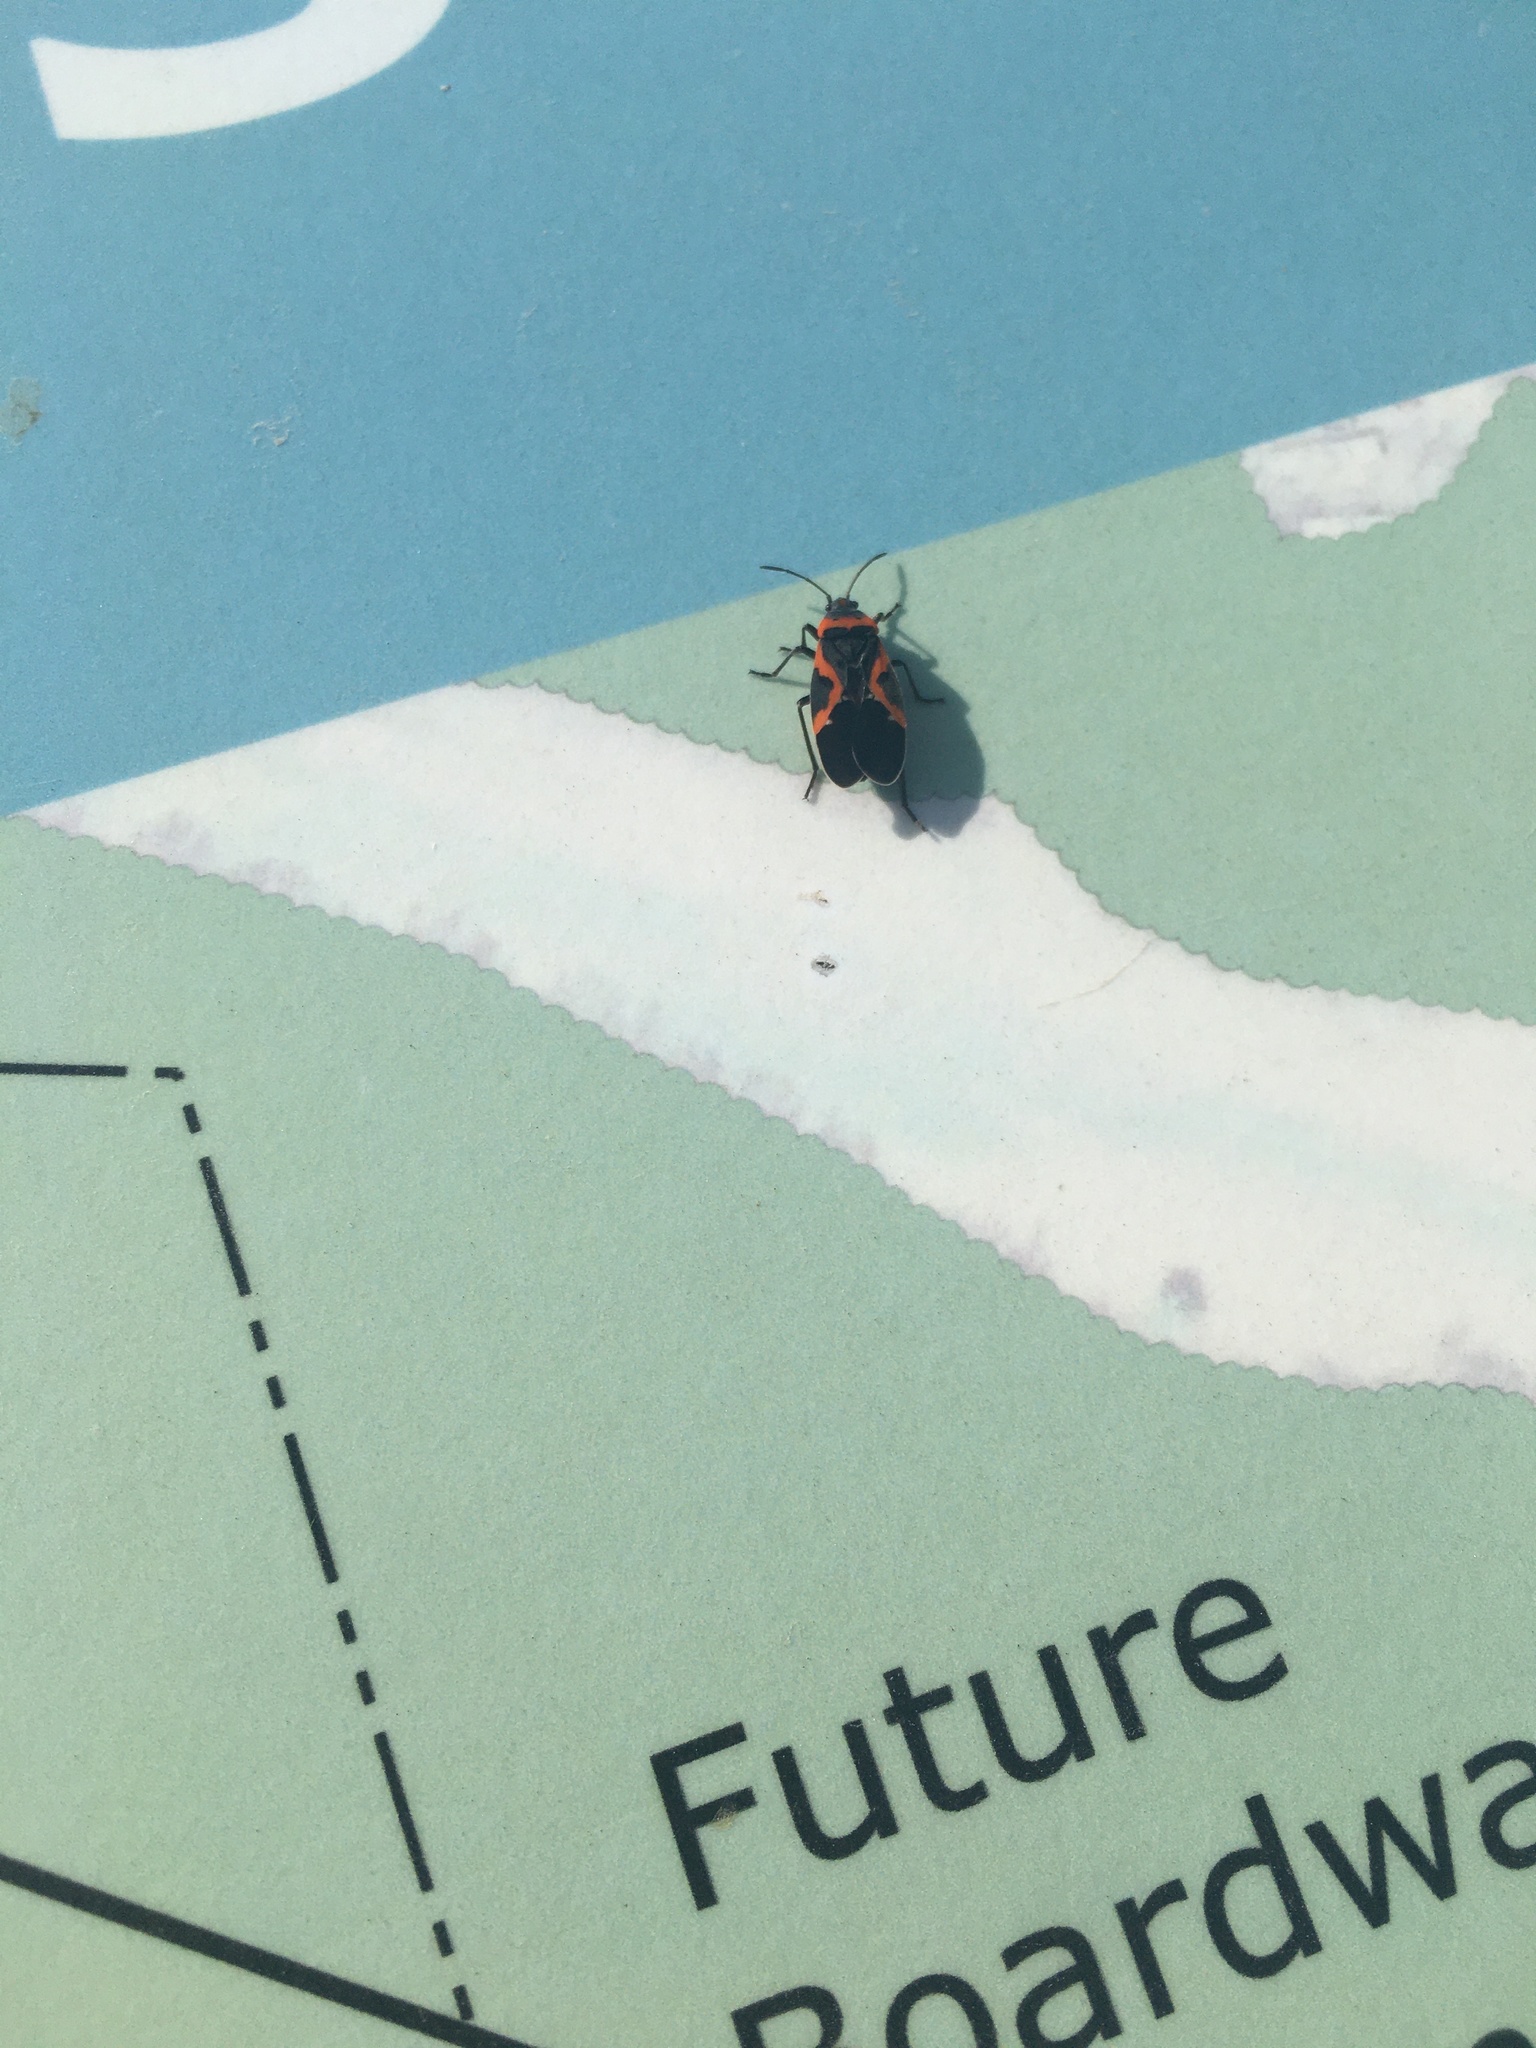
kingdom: Animalia
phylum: Arthropoda
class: Insecta
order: Hemiptera
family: Lygaeidae
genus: Lygaeus
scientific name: Lygaeus kalmii
